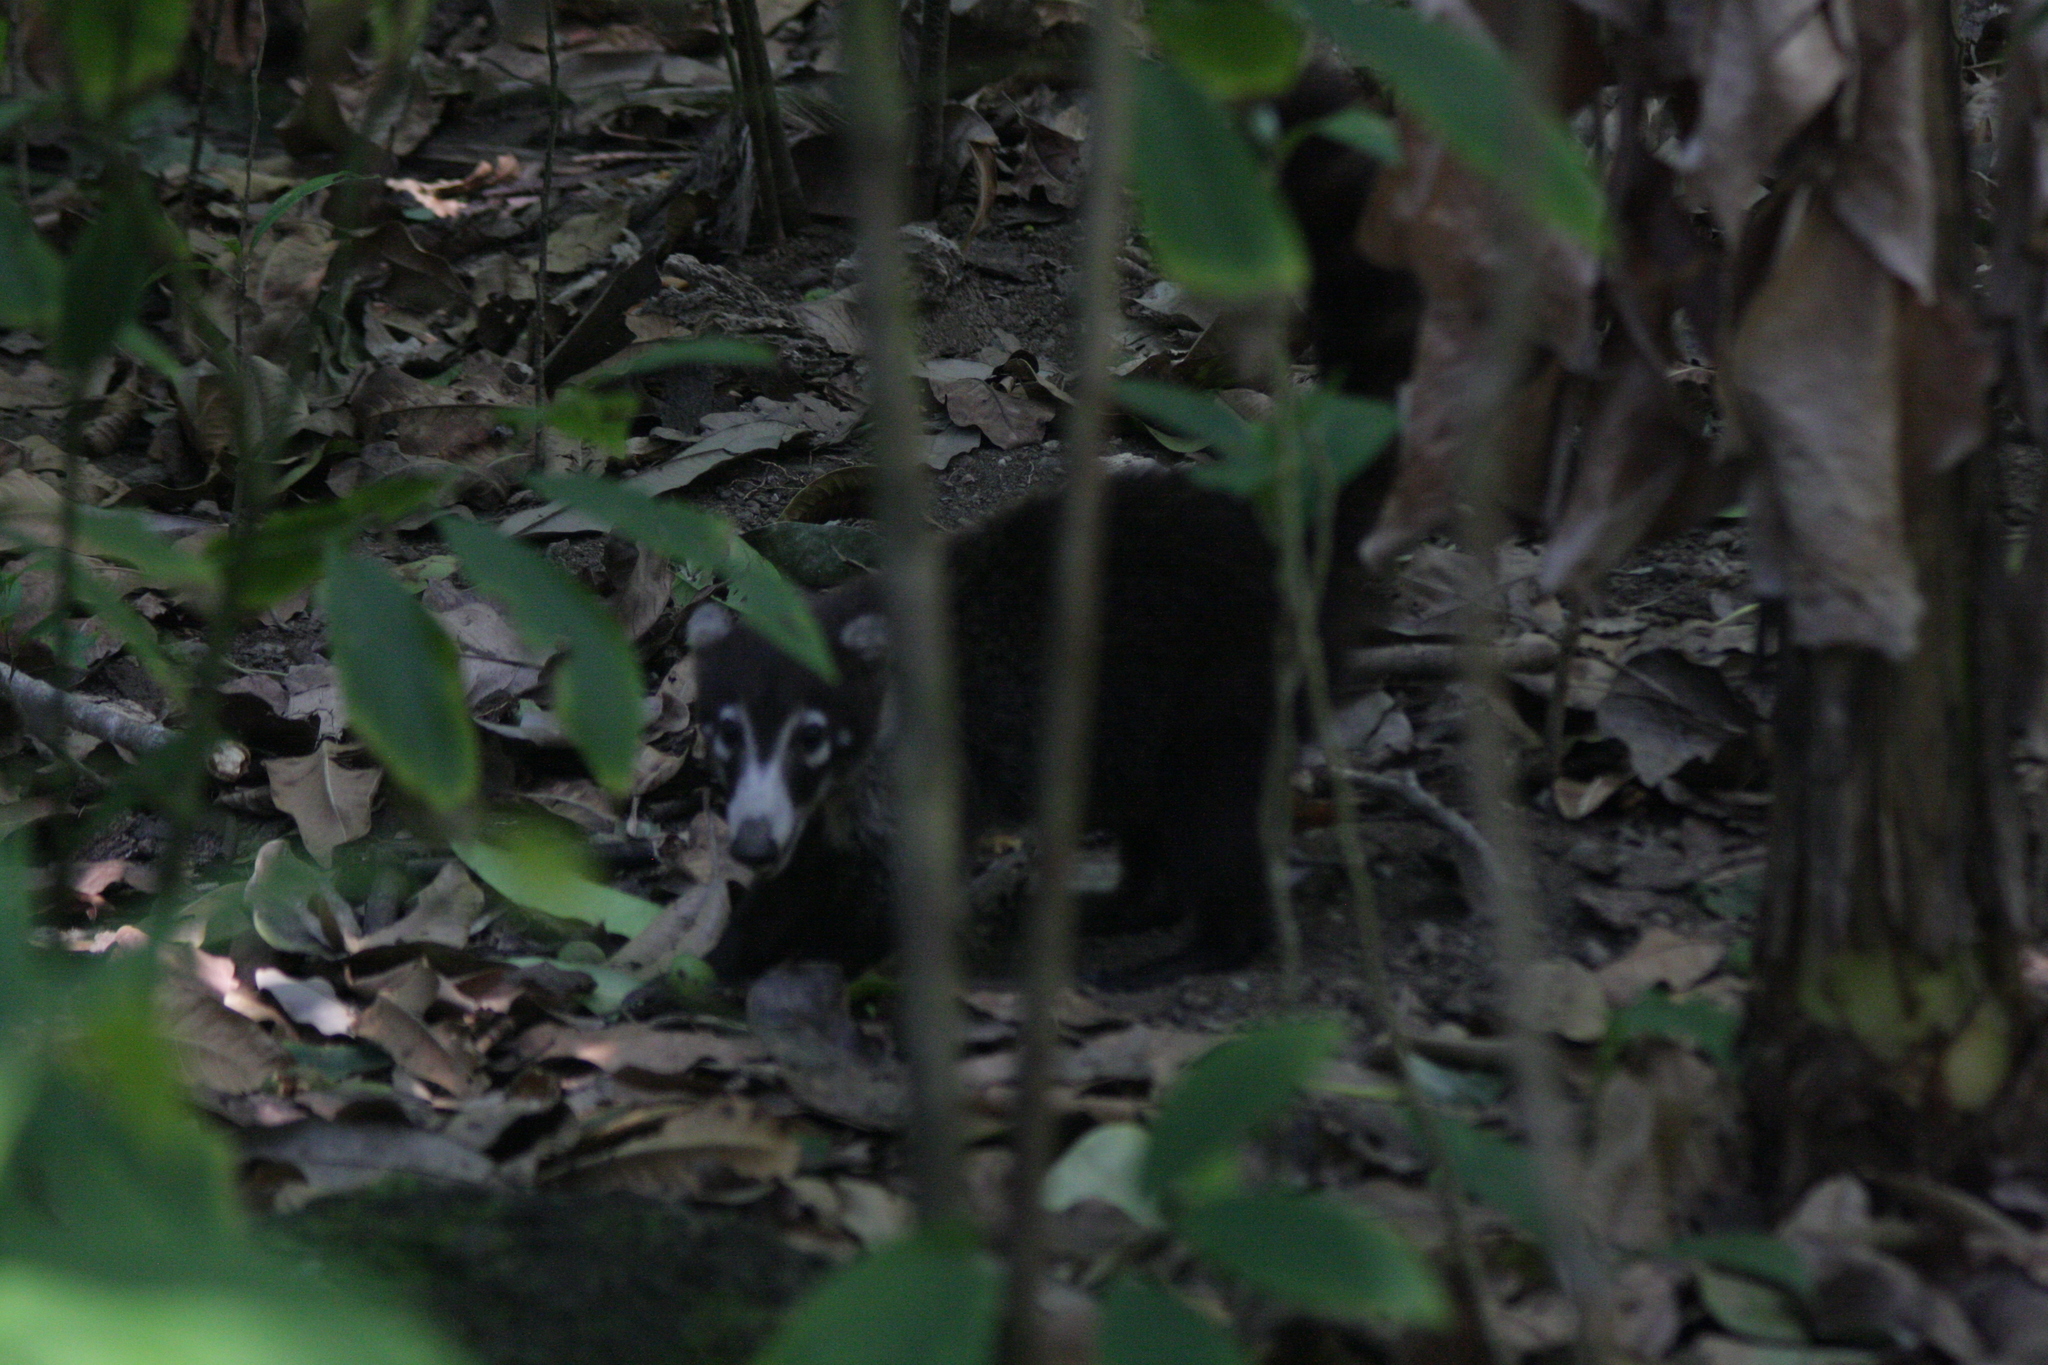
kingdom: Animalia
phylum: Chordata
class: Mammalia
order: Carnivora
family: Procyonidae
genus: Nasua
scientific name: Nasua narica
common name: White-nosed coati
